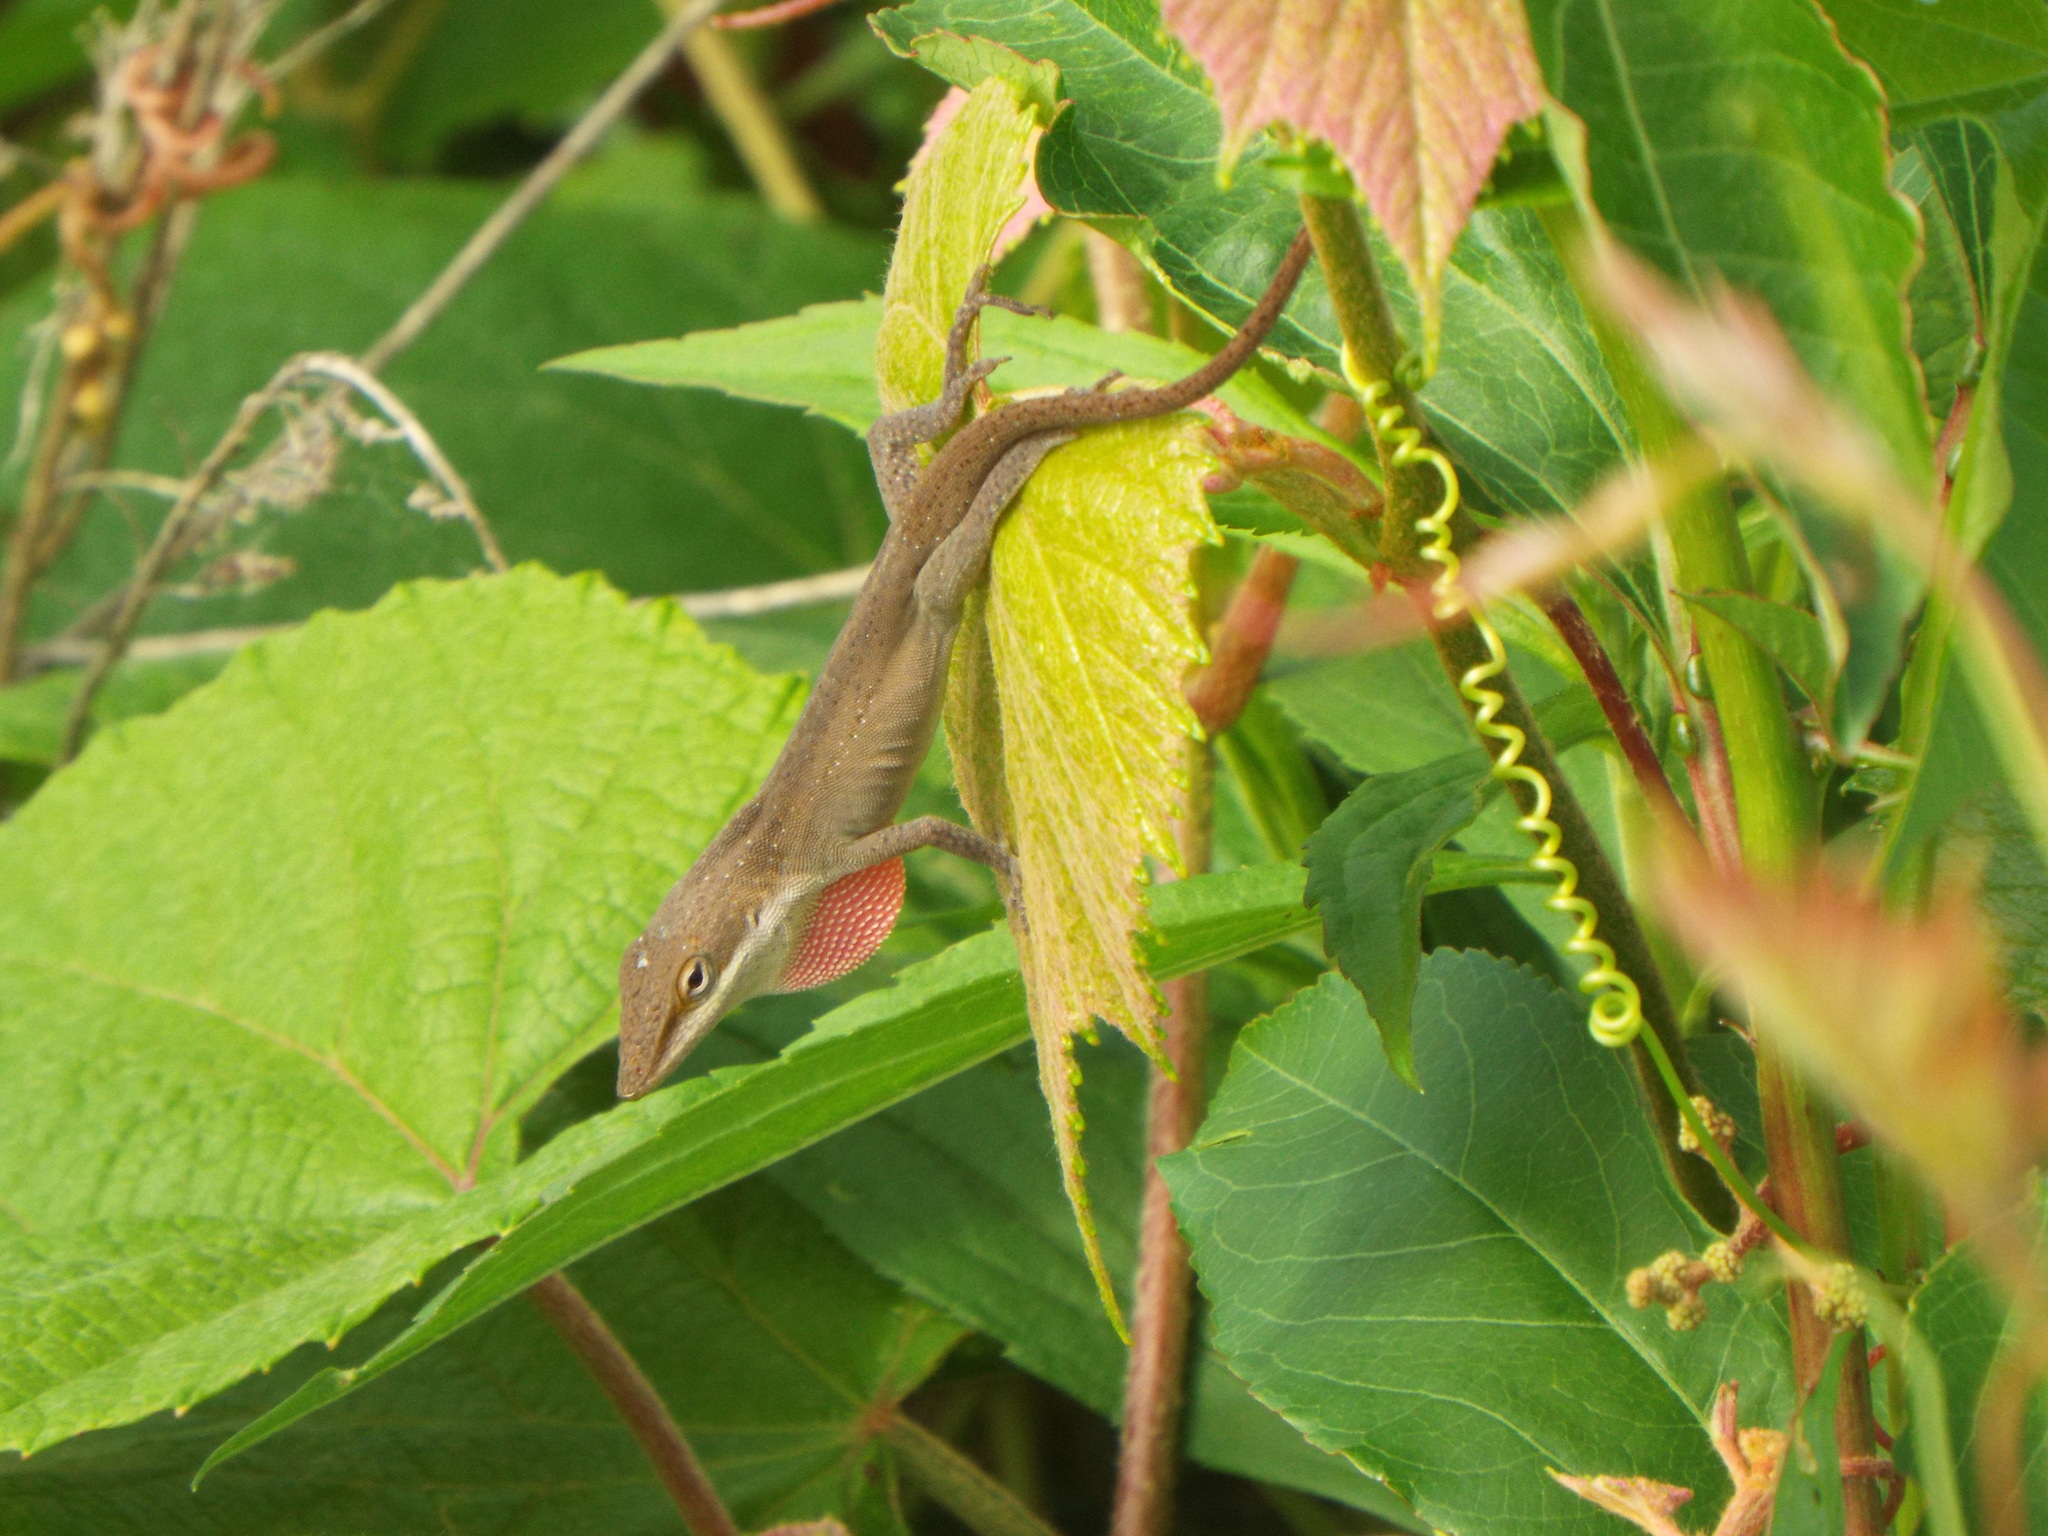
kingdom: Animalia
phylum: Chordata
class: Squamata
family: Dactyloidae
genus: Anolis
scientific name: Anolis carolinensis
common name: Green anole
